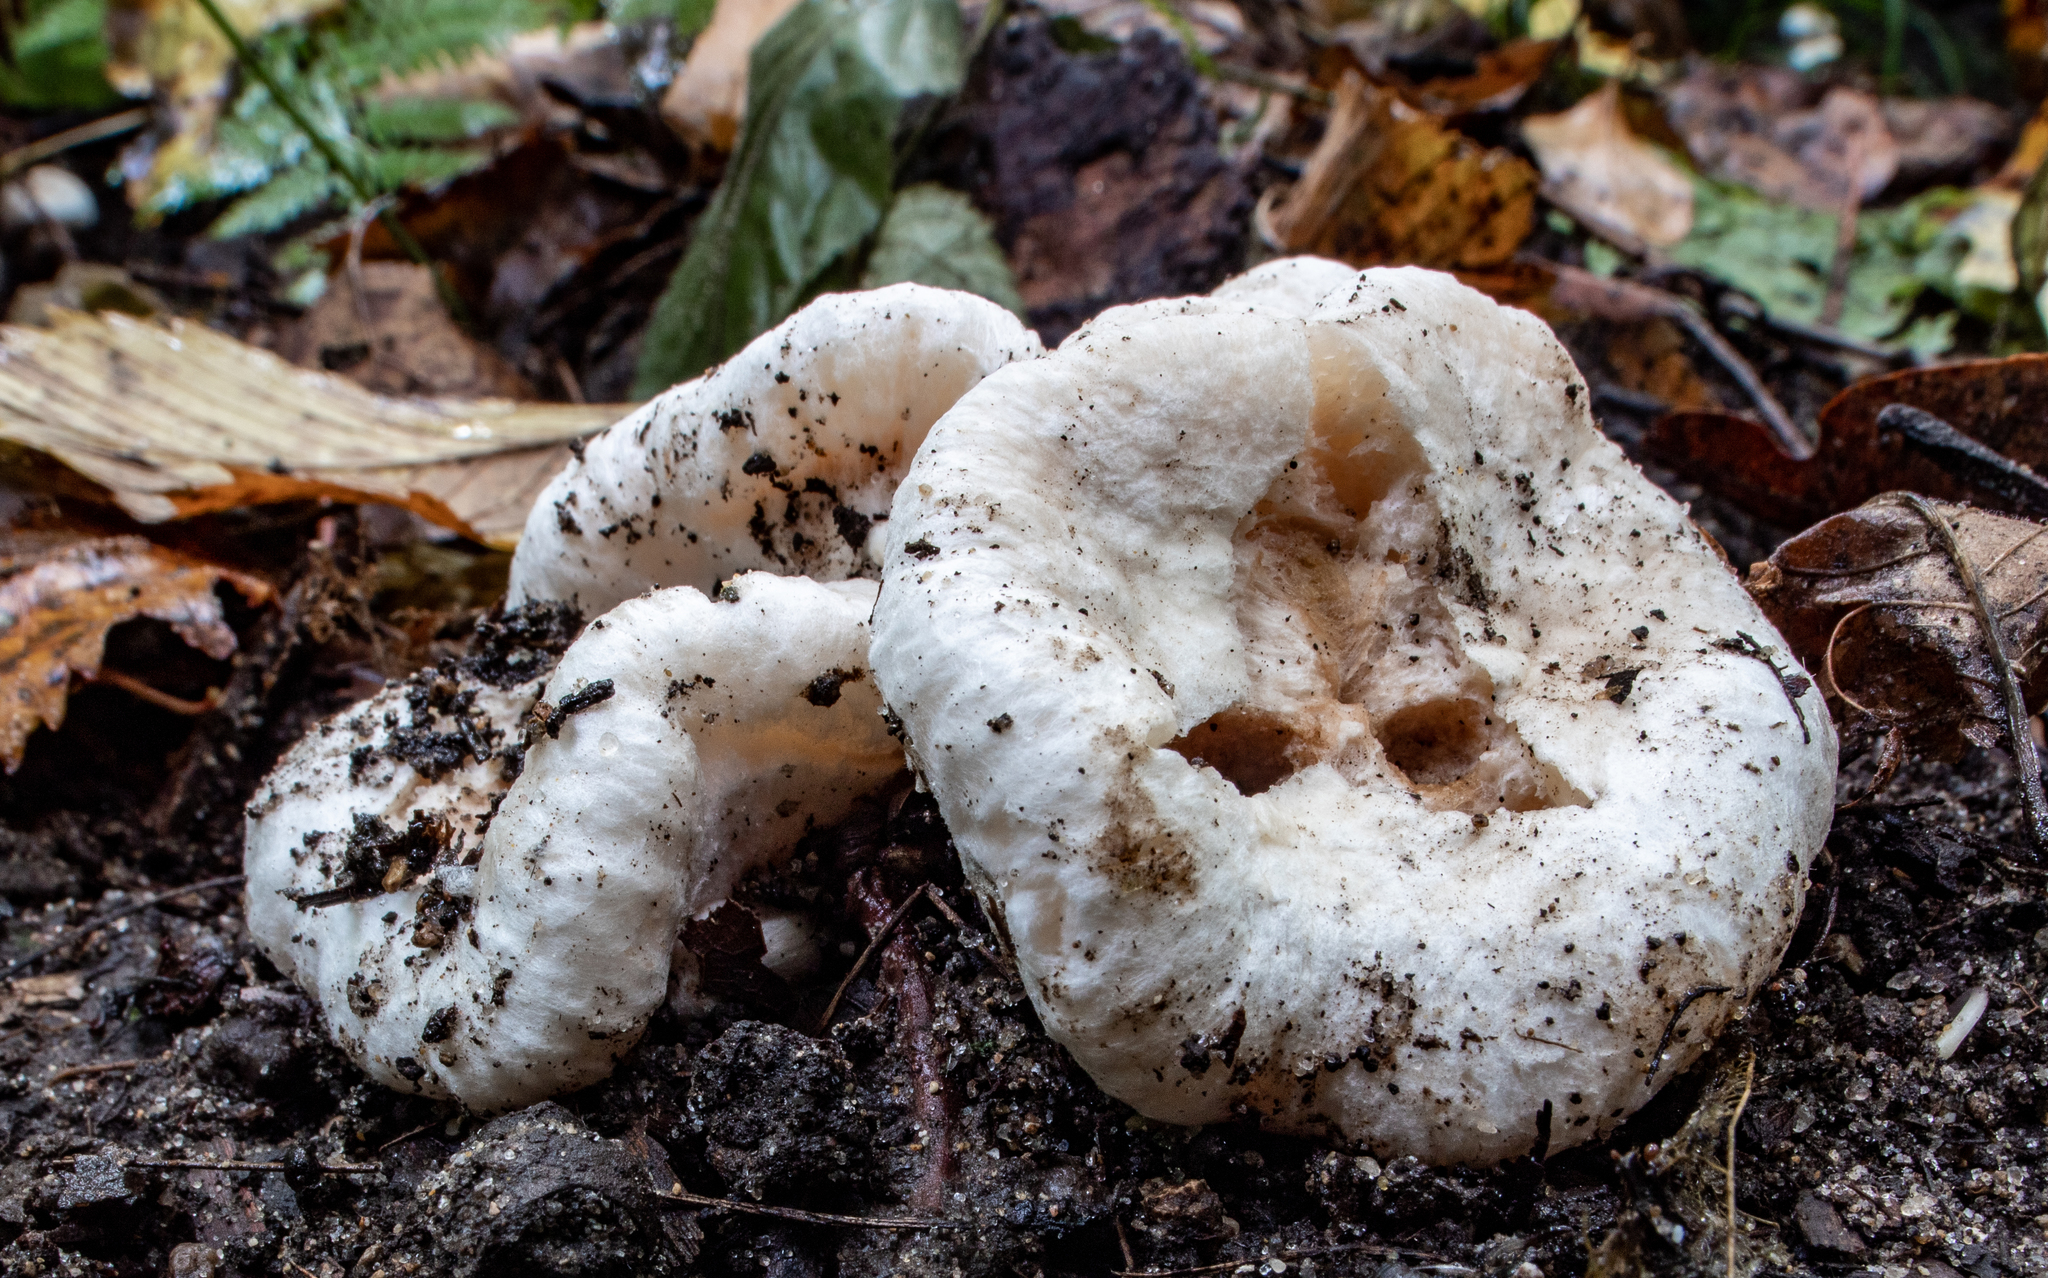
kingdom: Fungi
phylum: Basidiomycota
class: Agaricomycetes
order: Agaricales
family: Entolomataceae
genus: Entoloma
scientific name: Entoloma abortivum
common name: Aborted entoloma
